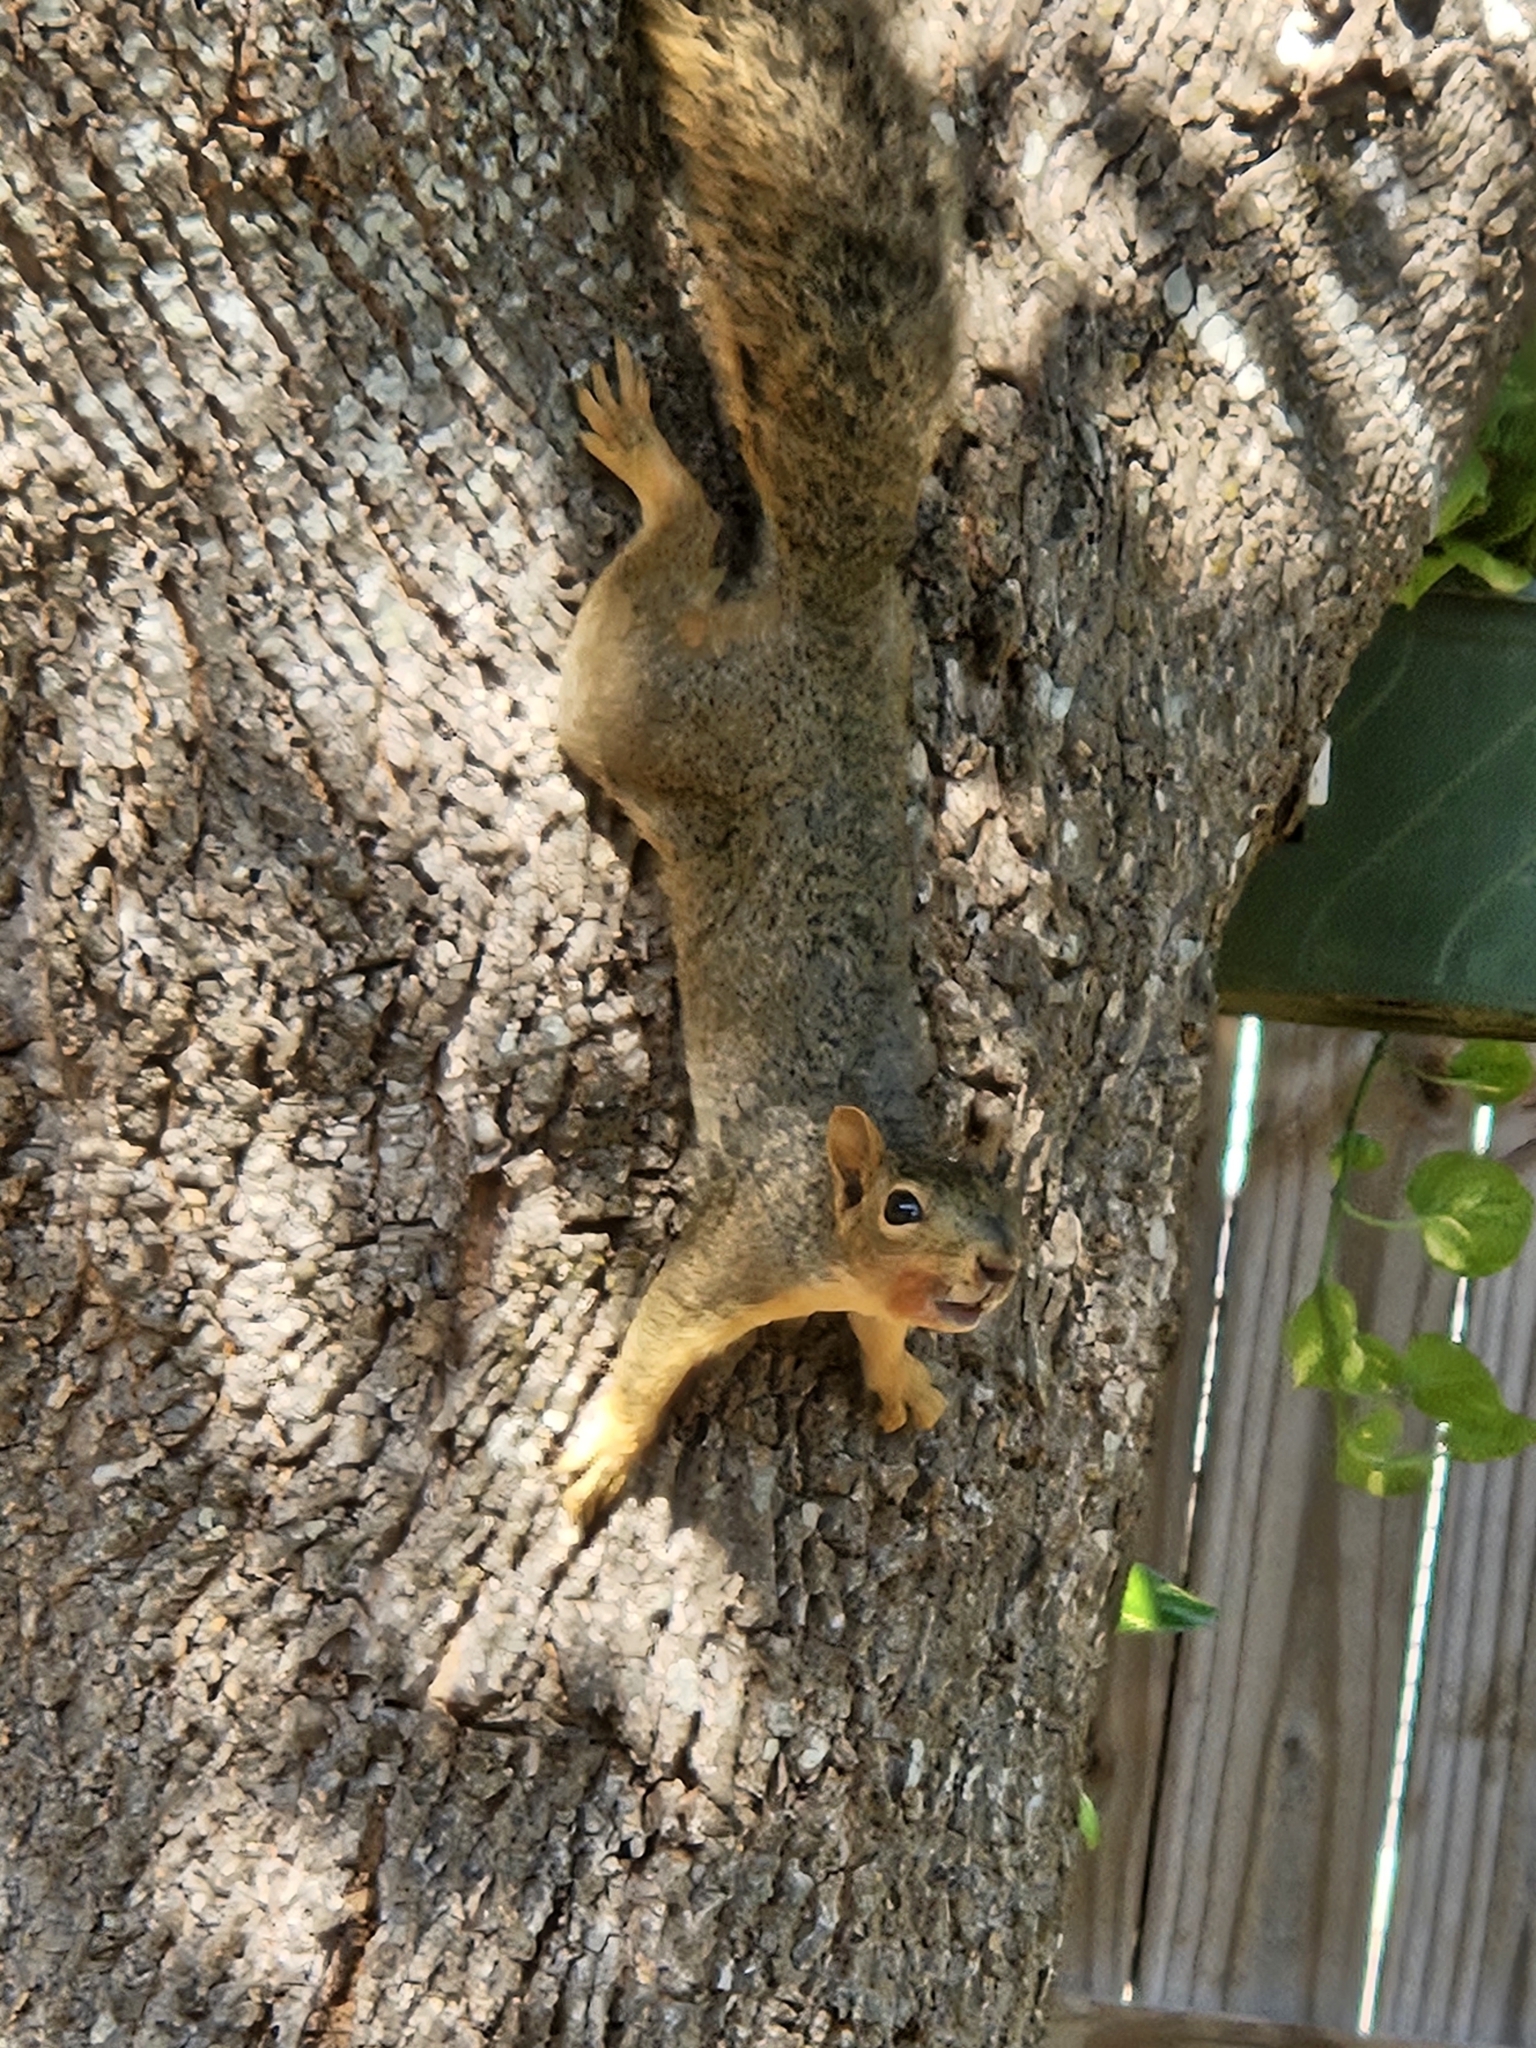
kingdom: Animalia
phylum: Chordata
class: Mammalia
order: Rodentia
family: Sciuridae
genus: Sciurus
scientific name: Sciurus niger
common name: Fox squirrel
